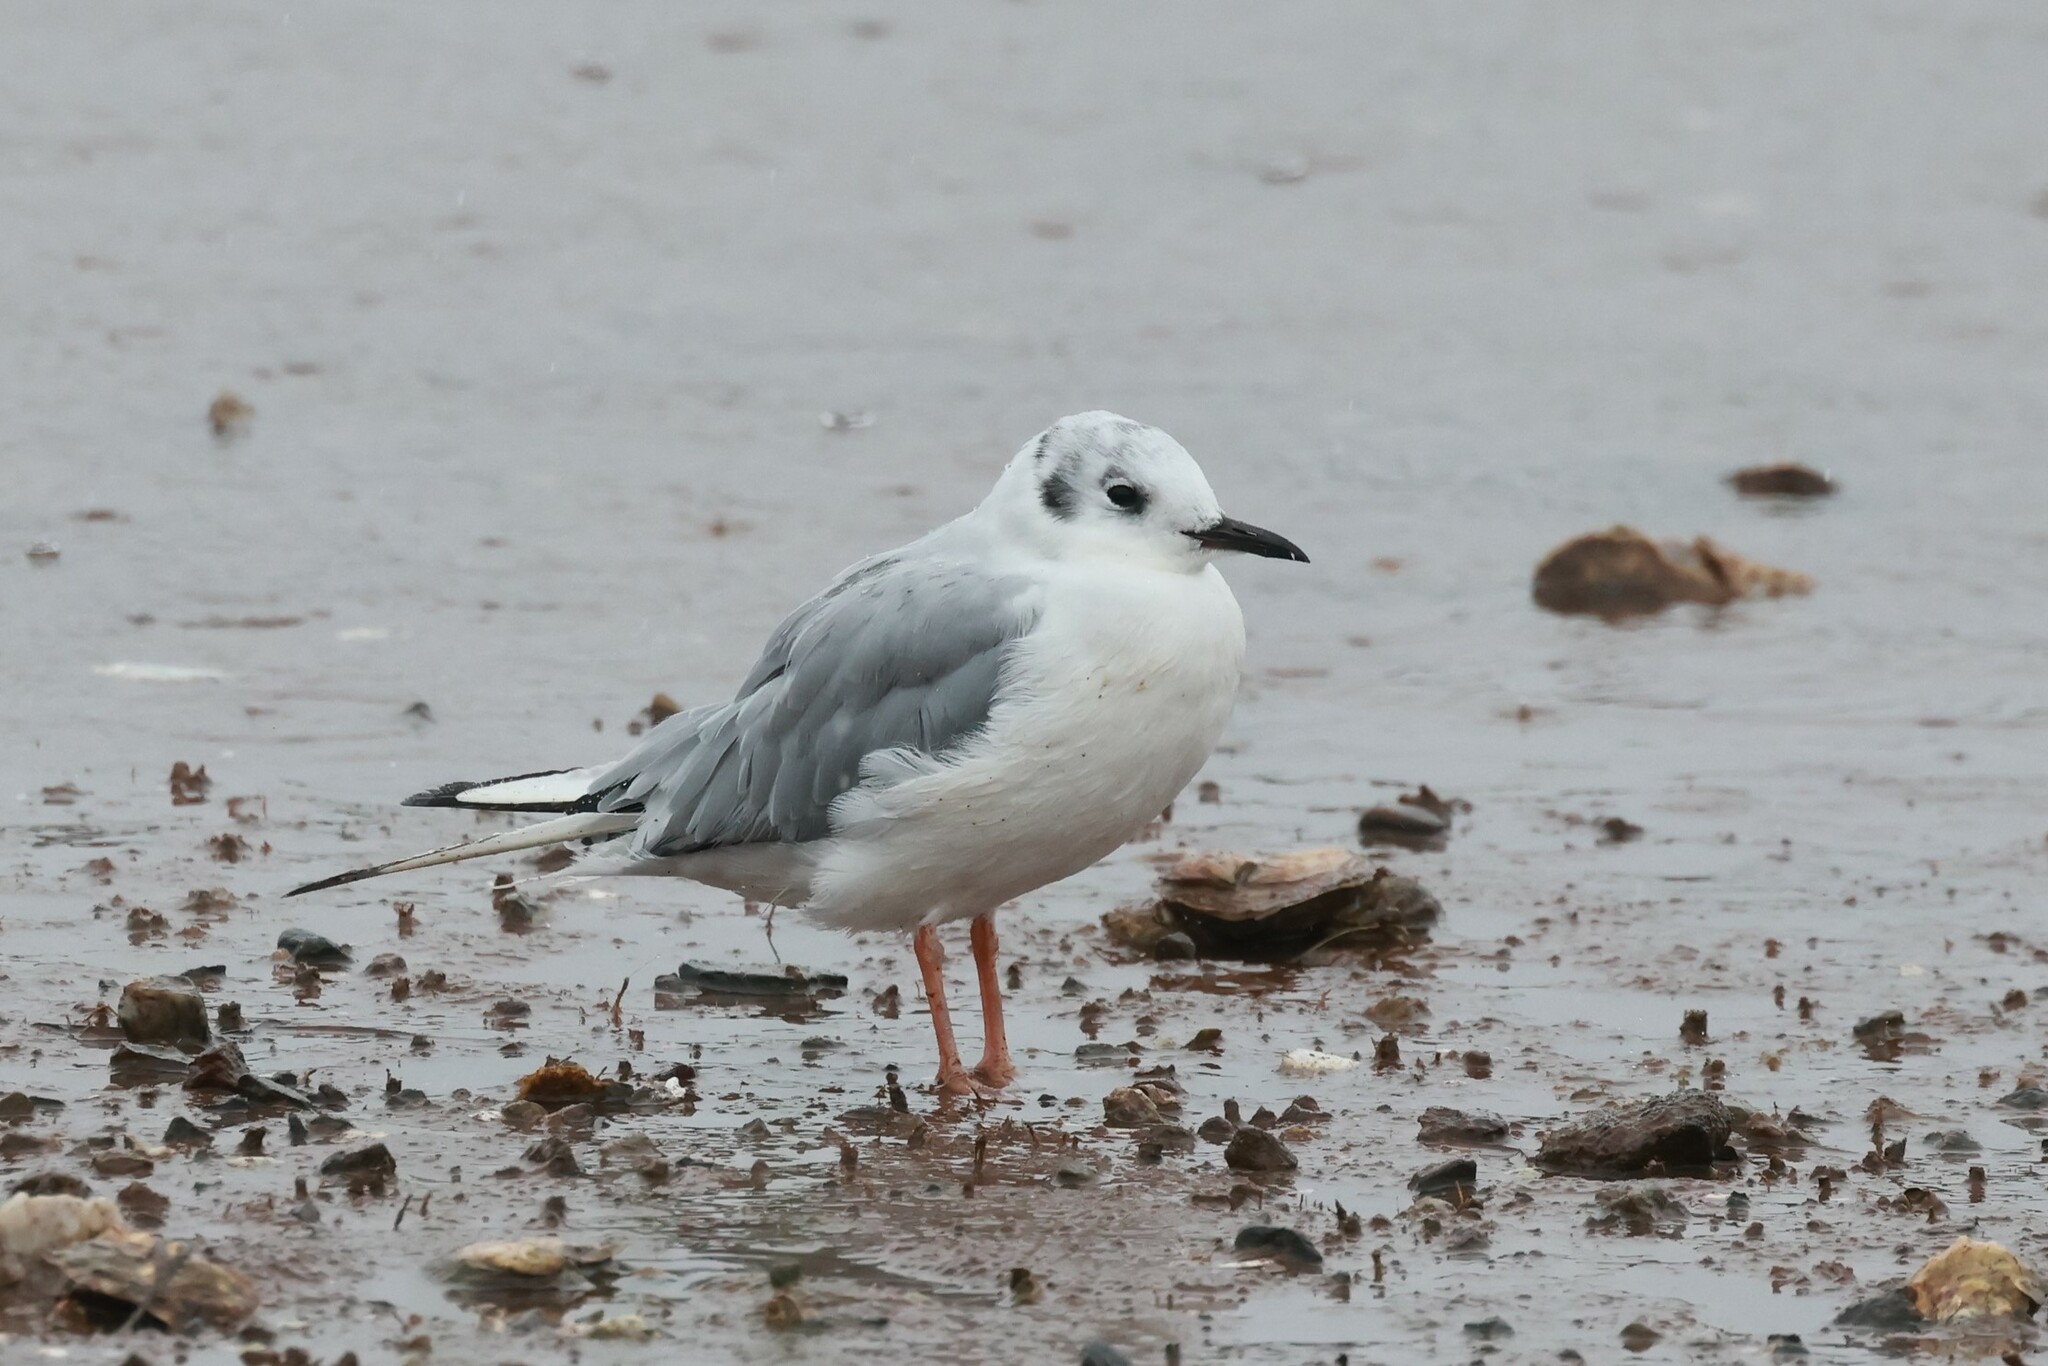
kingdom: Animalia
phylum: Chordata
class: Aves
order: Charadriiformes
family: Laridae
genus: Chroicocephalus
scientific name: Chroicocephalus philadelphia
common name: Bonaparte's gull
